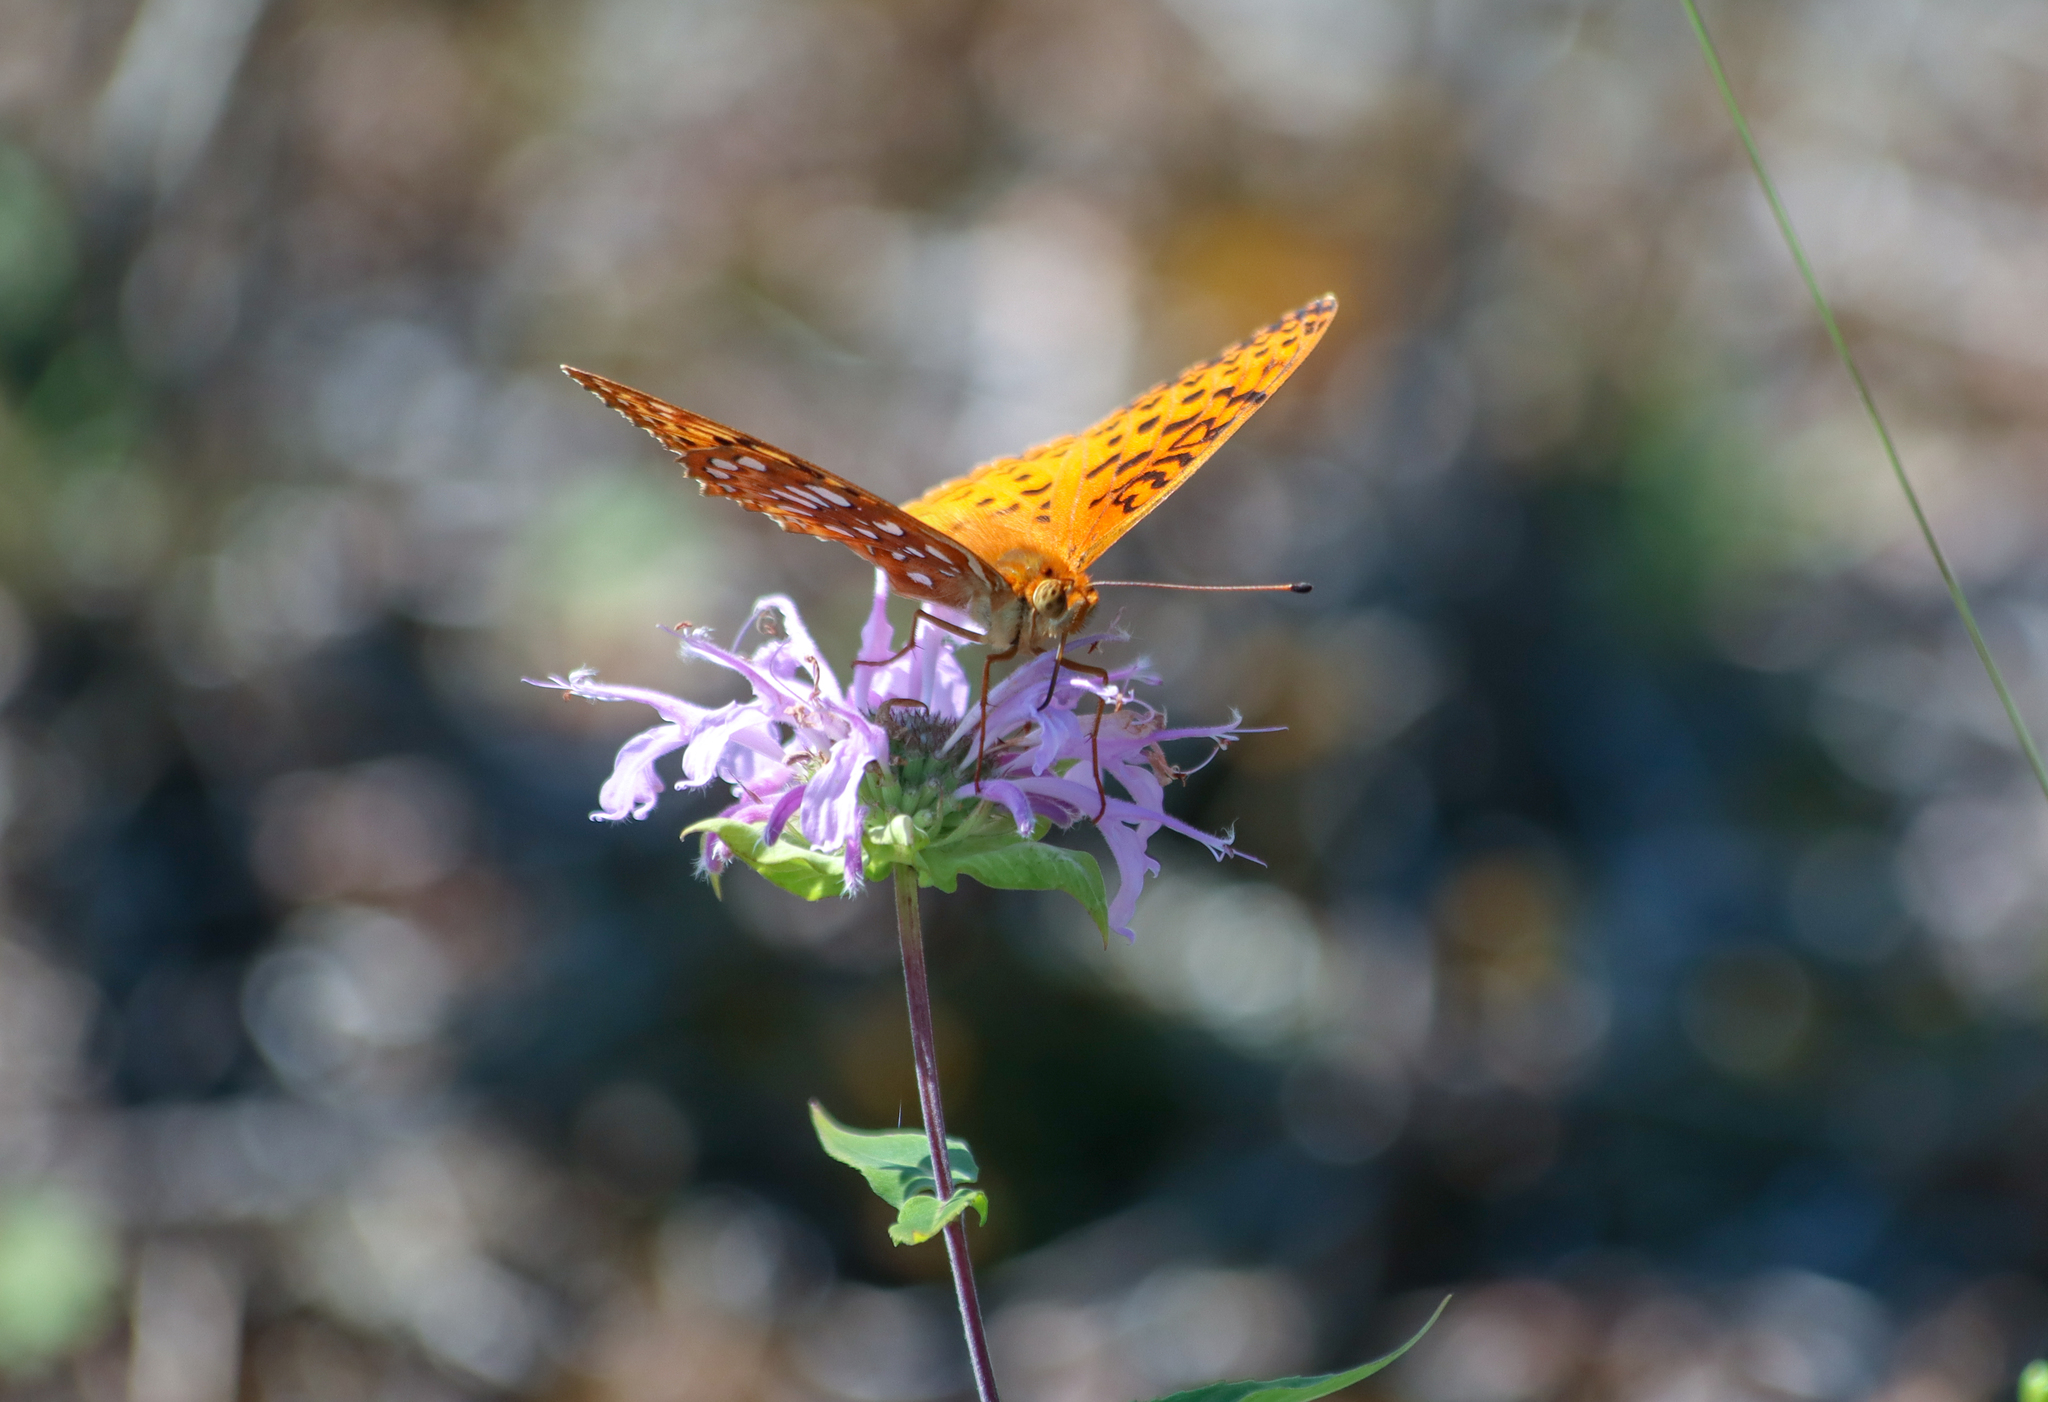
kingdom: Animalia
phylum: Arthropoda
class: Insecta
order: Lepidoptera
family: Nymphalidae
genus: Speyeria
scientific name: Speyeria aphrodite
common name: Aphrodite friitllary
